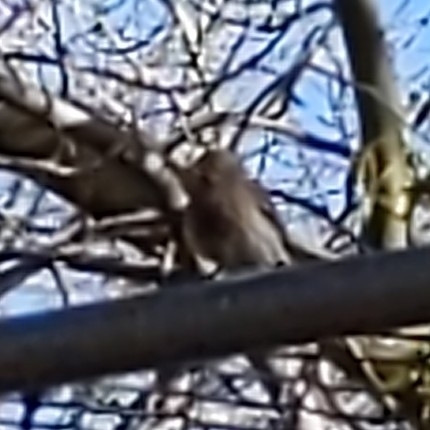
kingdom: Animalia
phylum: Chordata
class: Aves
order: Passeriformes
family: Fringillidae
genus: Haemorhous
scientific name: Haemorhous mexicanus
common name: House finch
